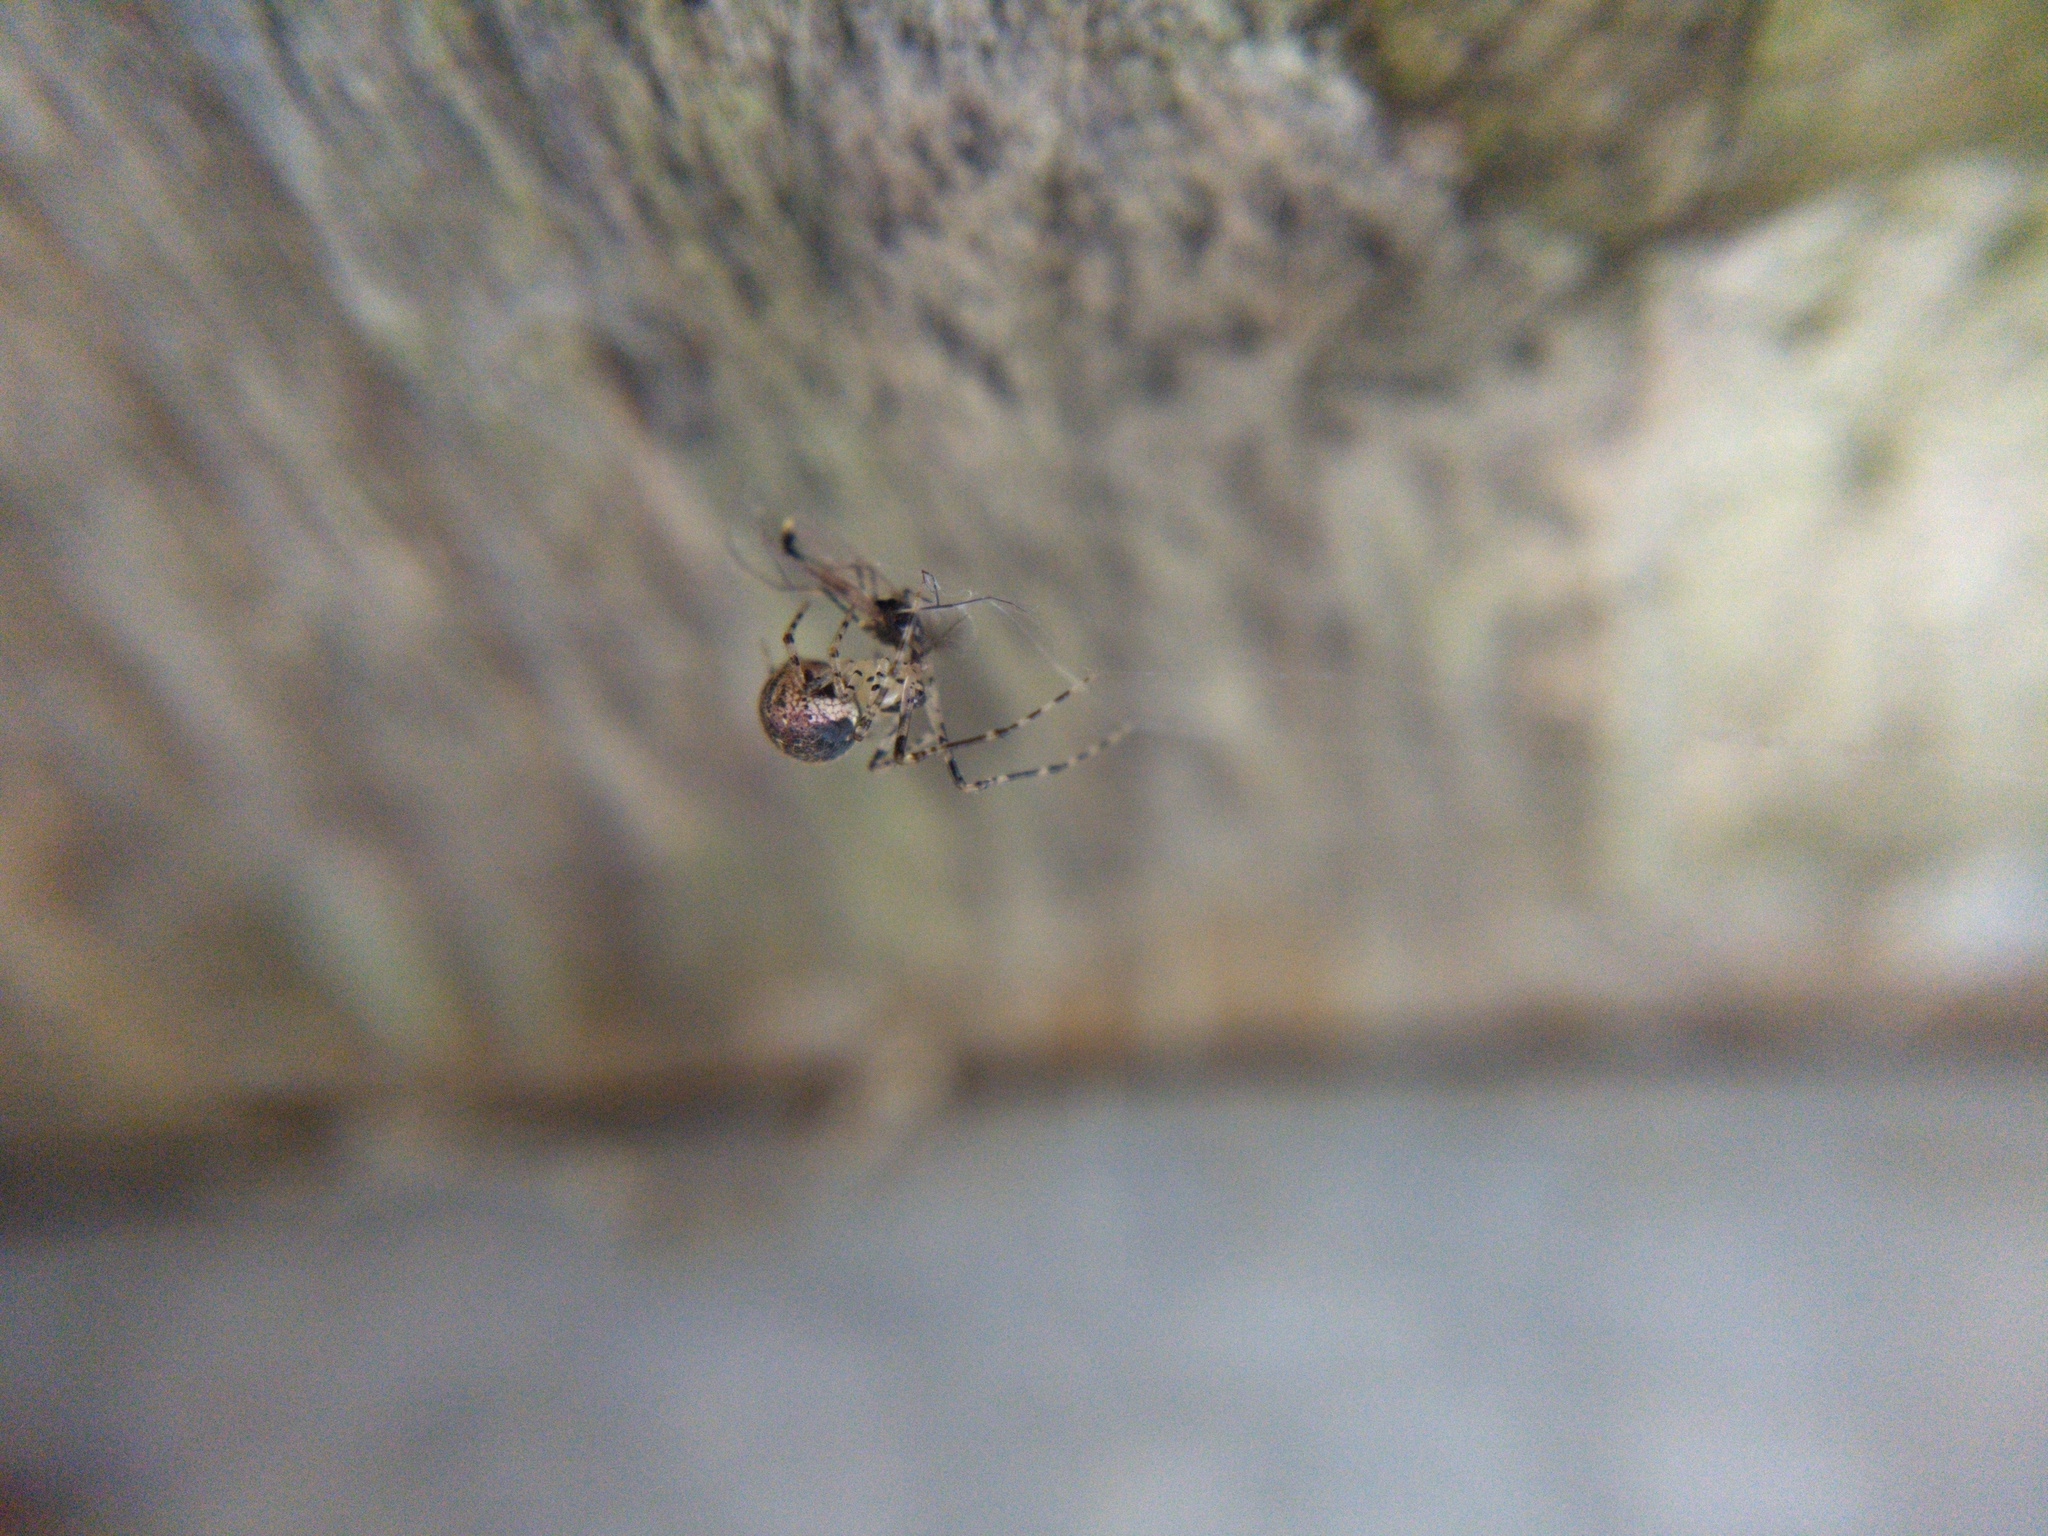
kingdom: Animalia
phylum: Arthropoda
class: Arachnida
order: Araneae
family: Theridiidae
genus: Platnickina
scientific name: Platnickina tincta
